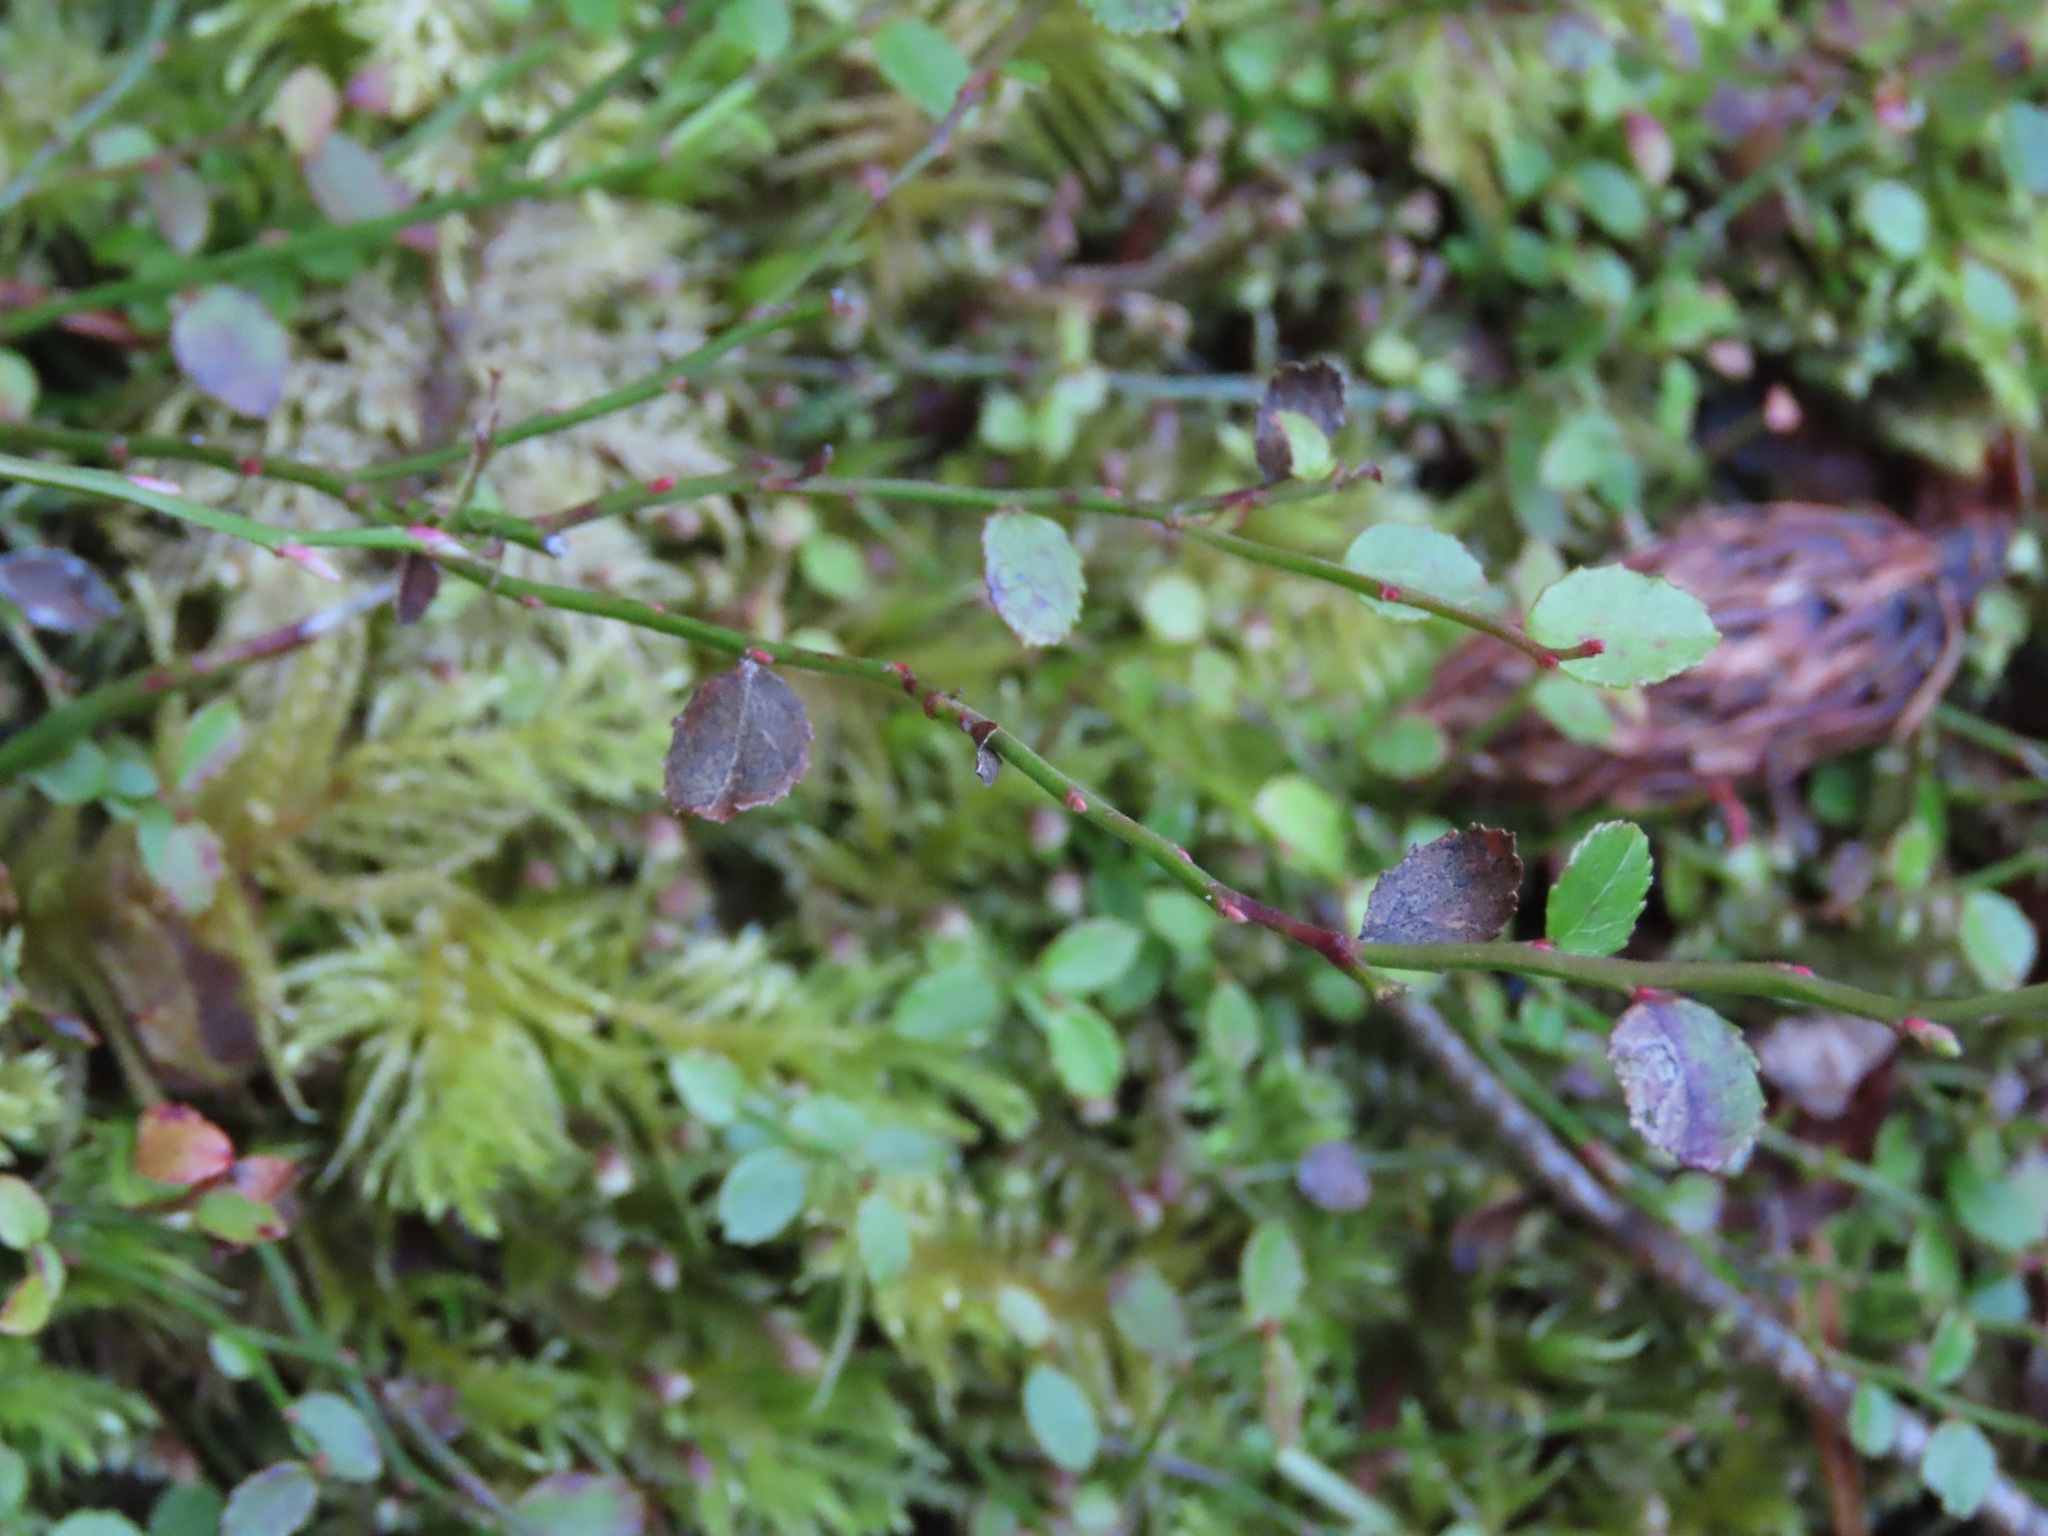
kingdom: Plantae
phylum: Tracheophyta
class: Magnoliopsida
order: Ericales
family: Ericaceae
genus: Vaccinium
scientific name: Vaccinium parvifolium
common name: Red-huckleberry
